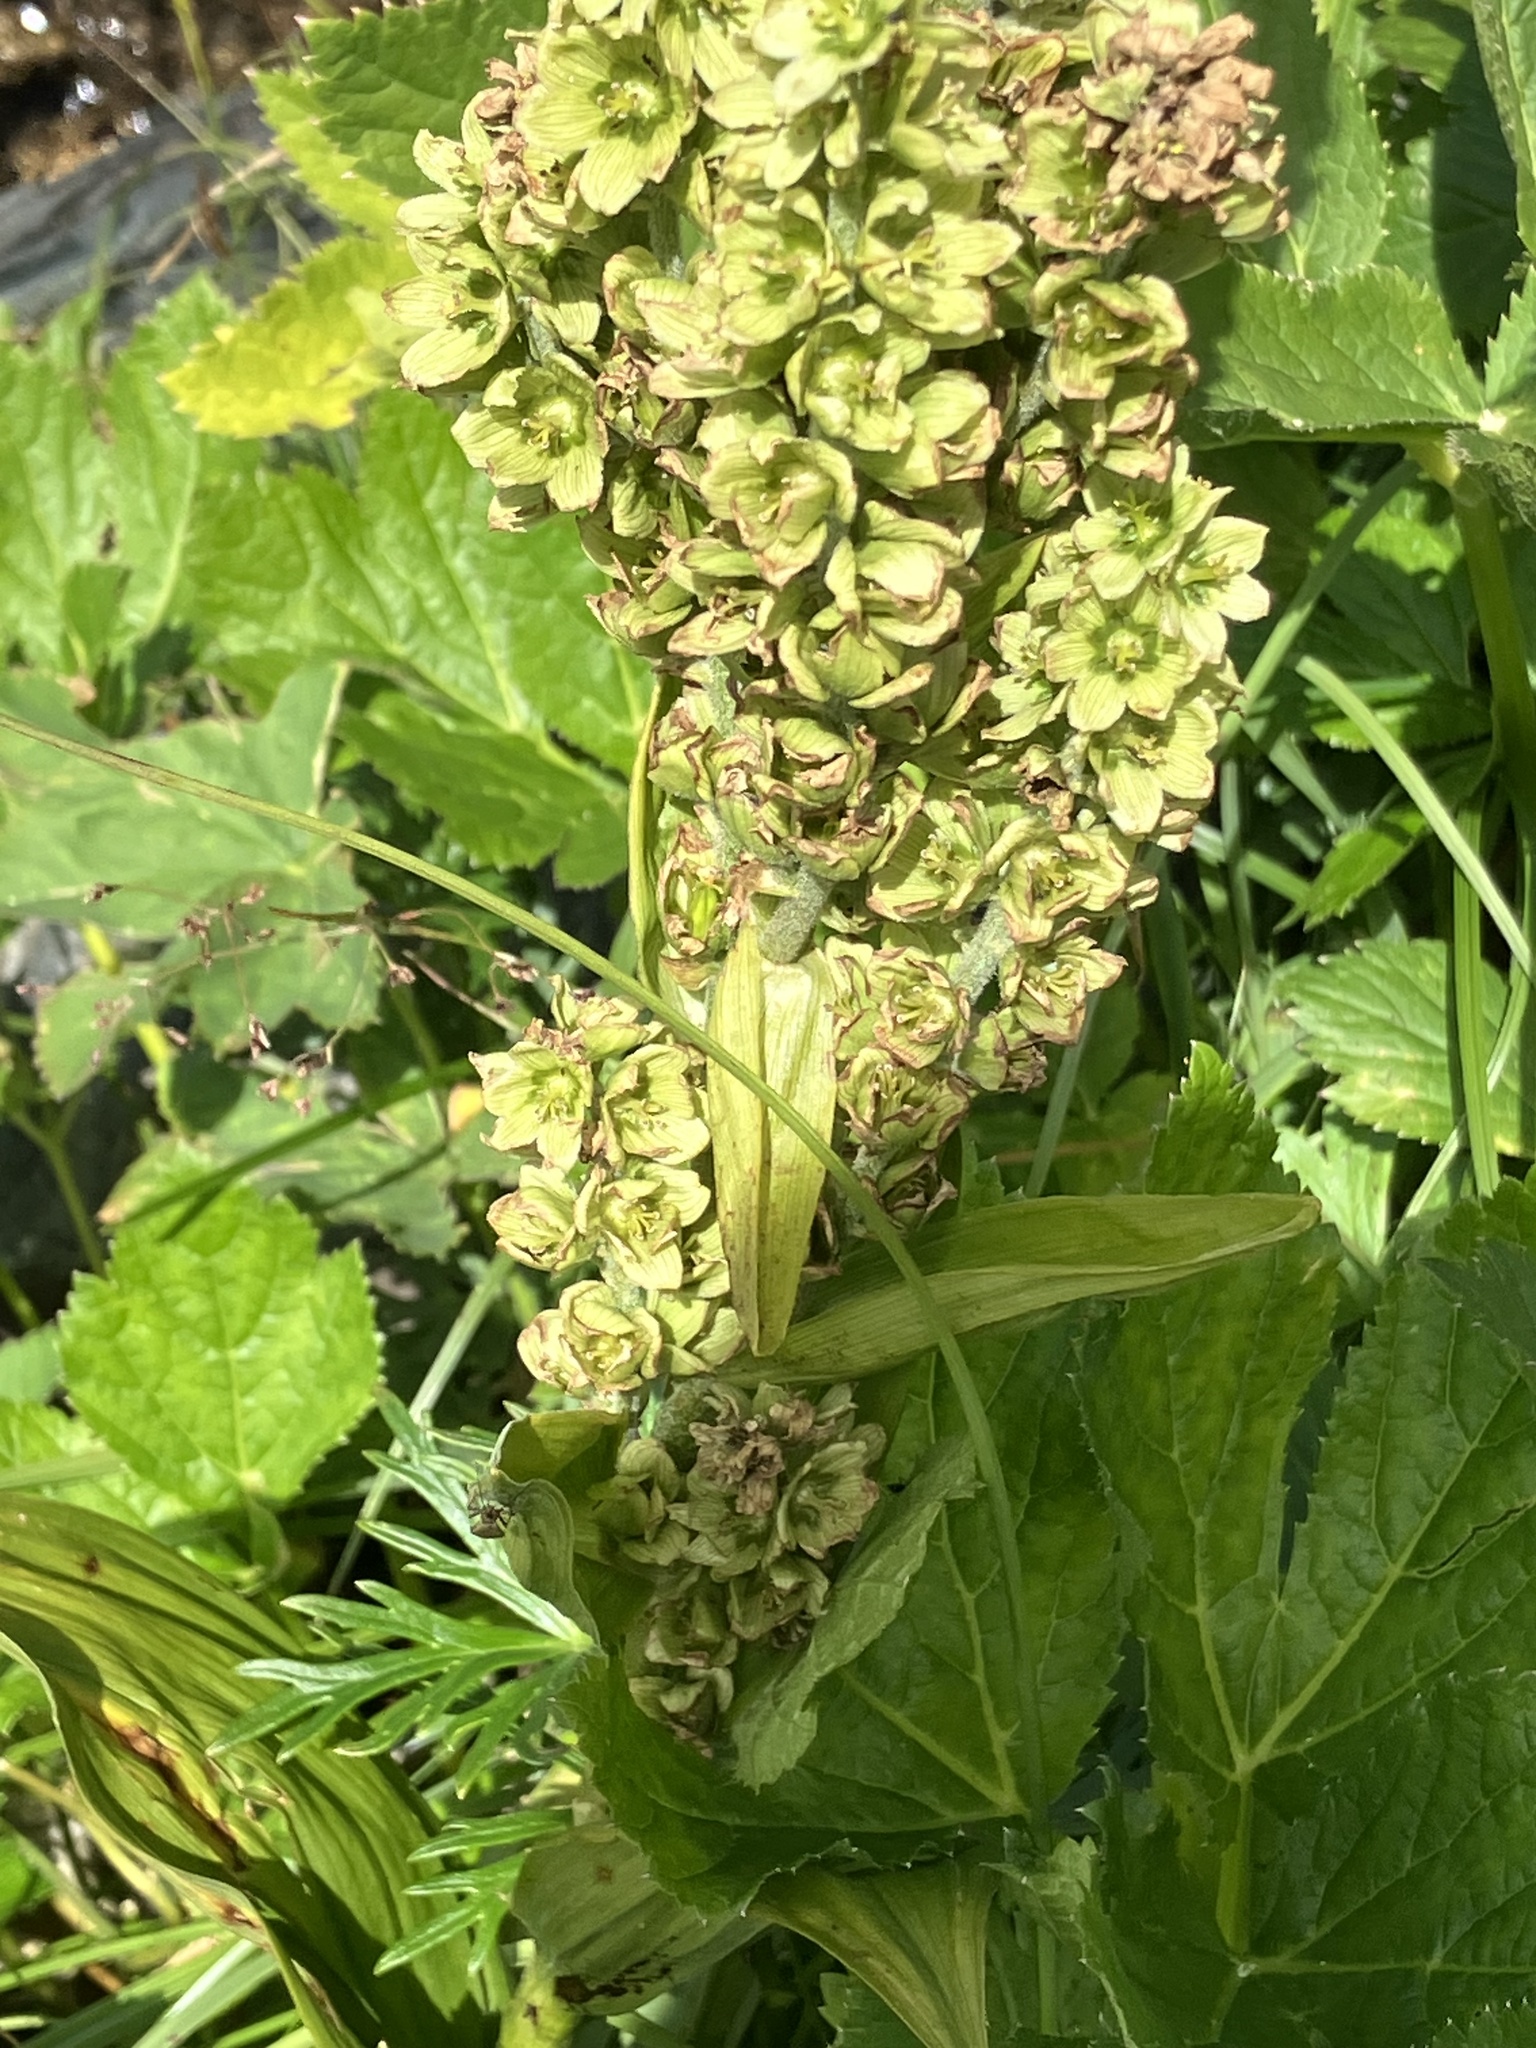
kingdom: Plantae
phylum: Tracheophyta
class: Liliopsida
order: Liliales
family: Melanthiaceae
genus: Veratrum
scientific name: Veratrum lobelianum
